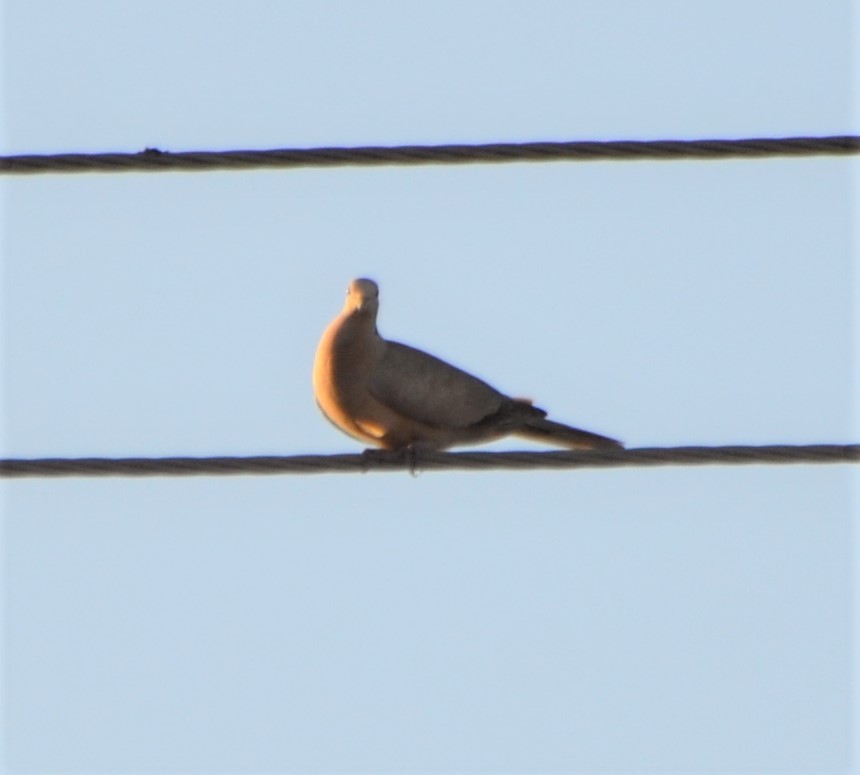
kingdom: Animalia
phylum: Chordata
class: Aves
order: Columbiformes
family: Columbidae
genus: Streptopelia
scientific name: Streptopelia decaocto
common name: Eurasian collared dove
